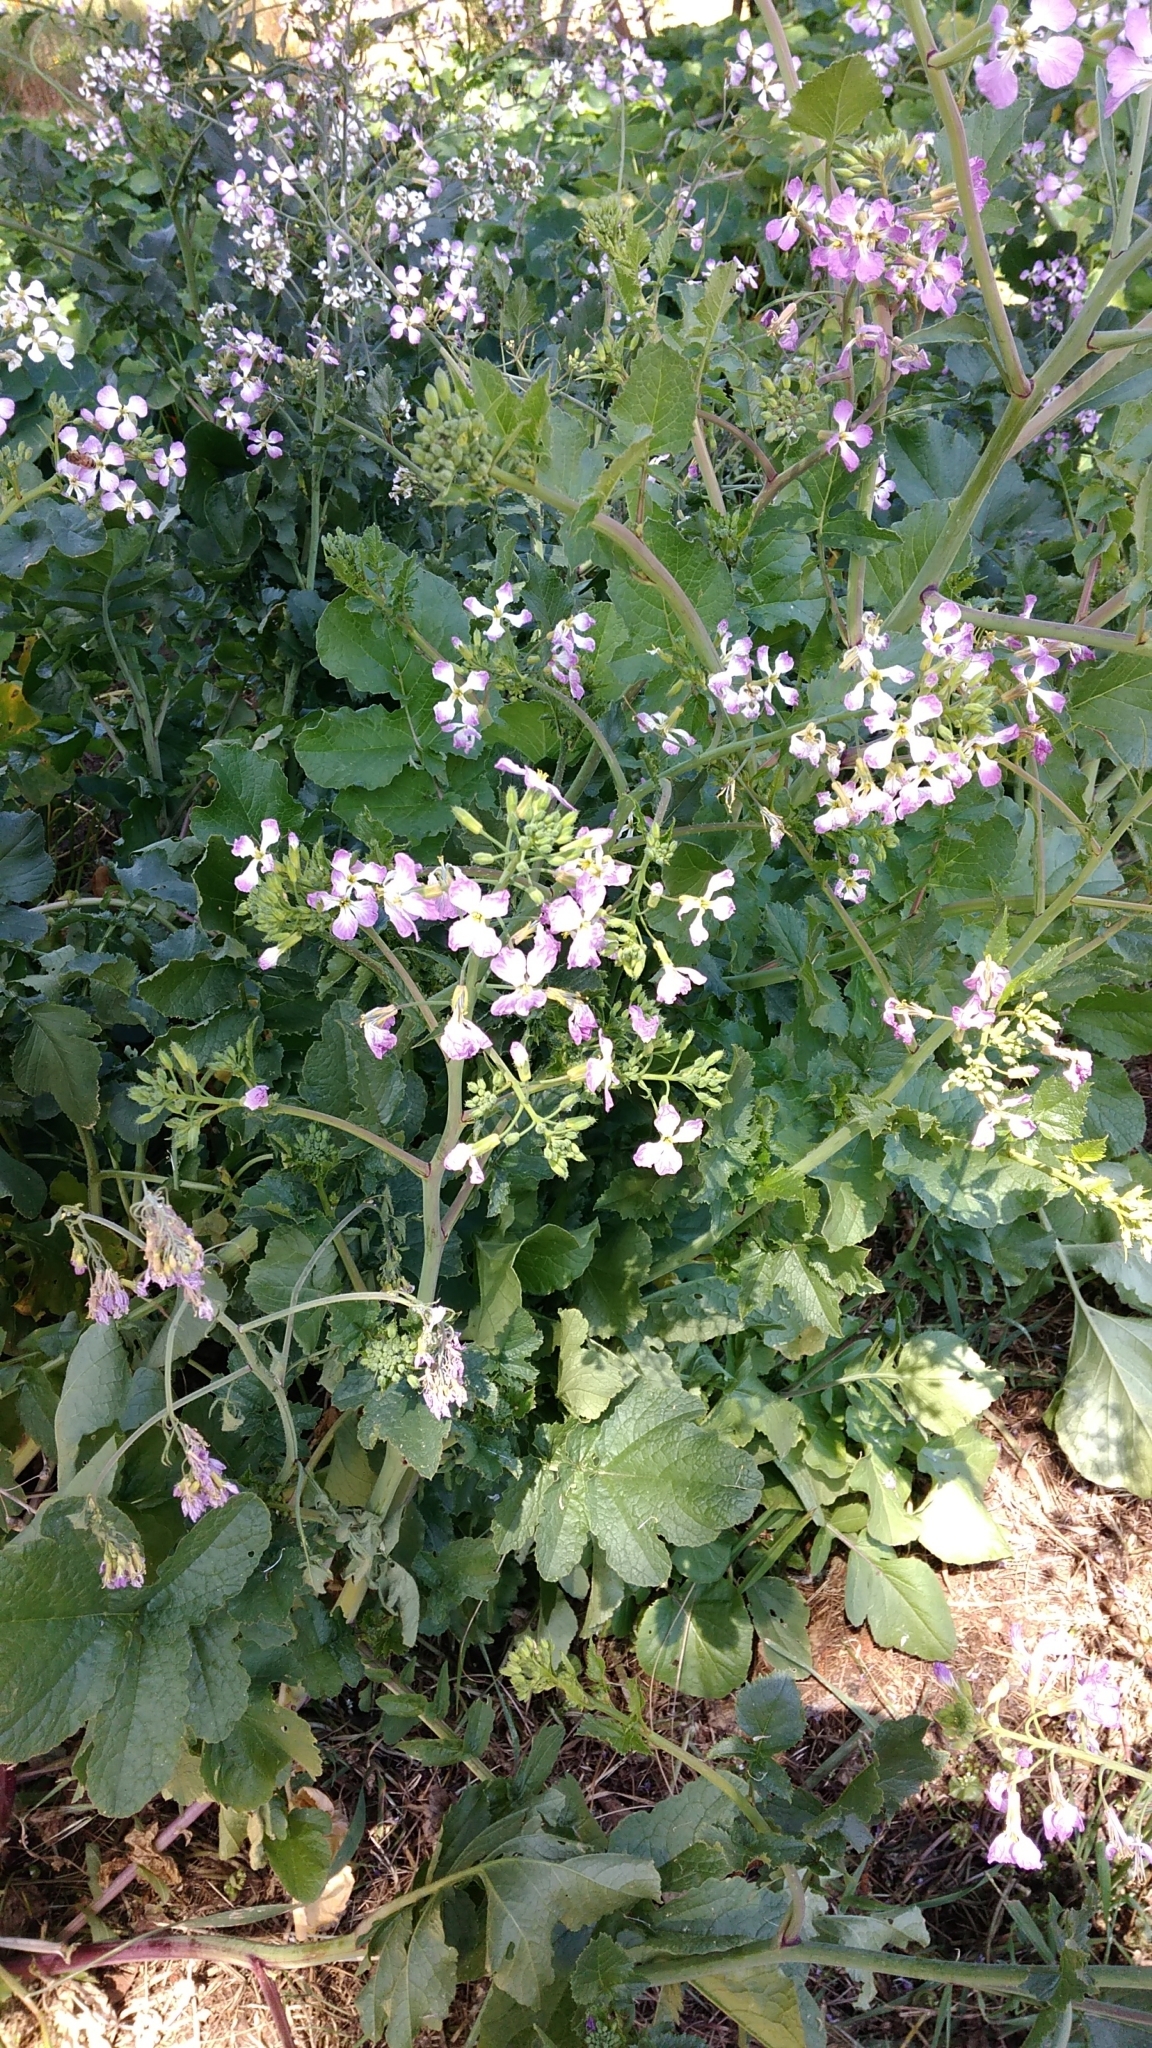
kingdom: Plantae
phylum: Tracheophyta
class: Magnoliopsida
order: Brassicales
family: Brassicaceae
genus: Raphanus
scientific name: Raphanus sativus
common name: Cultivated radish
